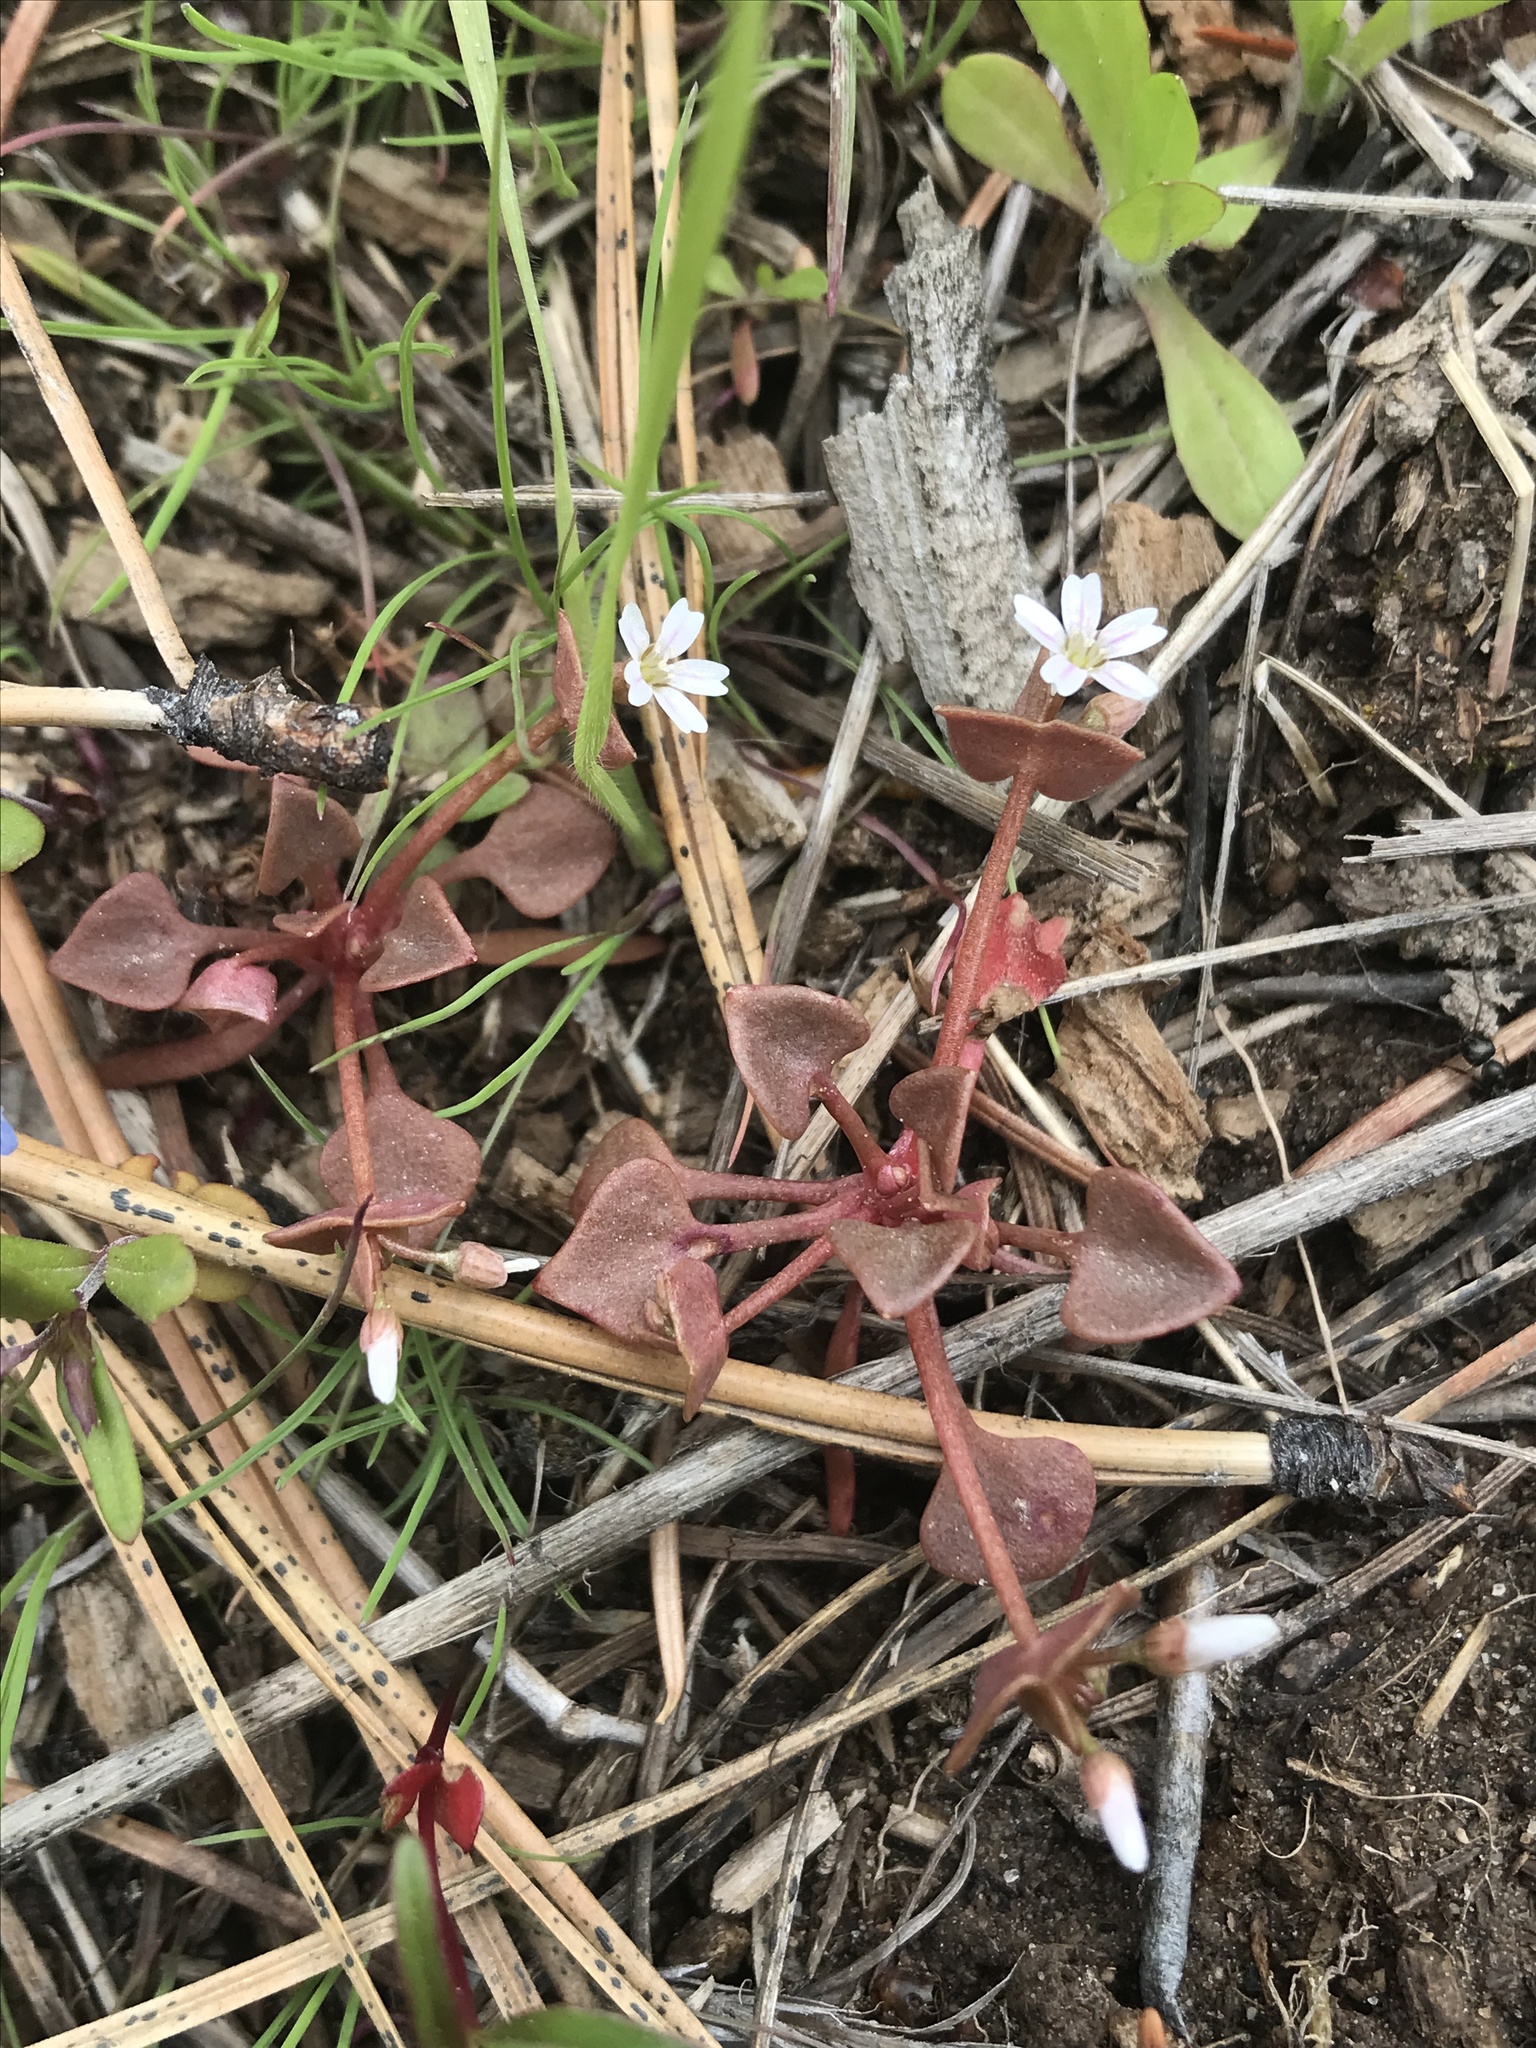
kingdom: Plantae
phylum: Tracheophyta
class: Magnoliopsida
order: Caryophyllales
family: Montiaceae
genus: Claytonia
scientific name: Claytonia rubra
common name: Erubescent miner's-lettuce
